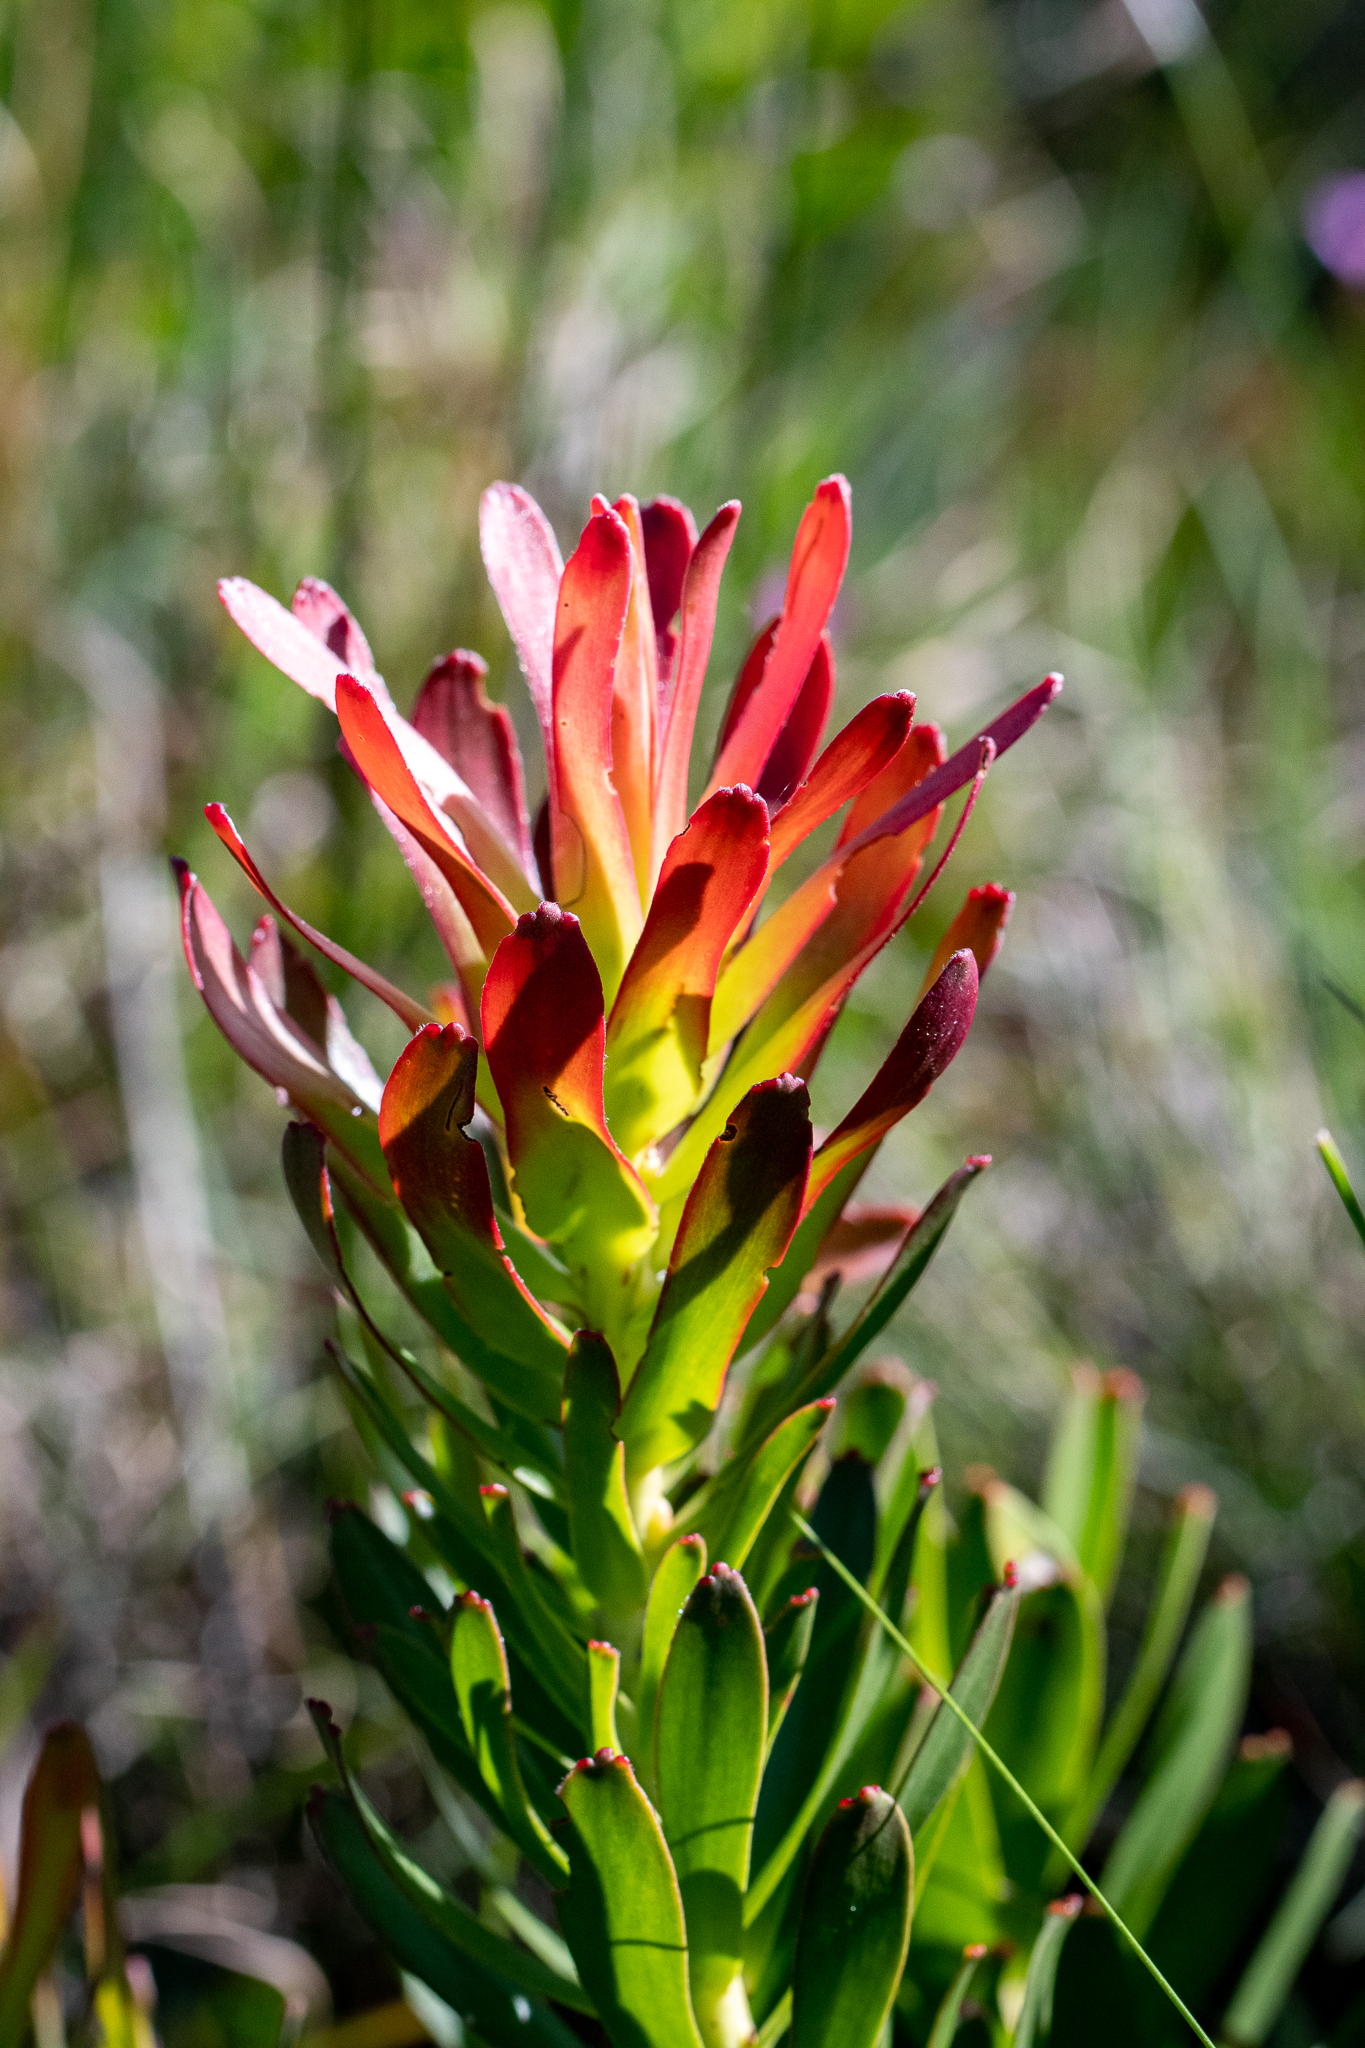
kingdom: Plantae
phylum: Tracheophyta
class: Magnoliopsida
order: Proteales
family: Proteaceae
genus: Mimetes
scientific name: Mimetes cucullatus
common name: Common pagoda
